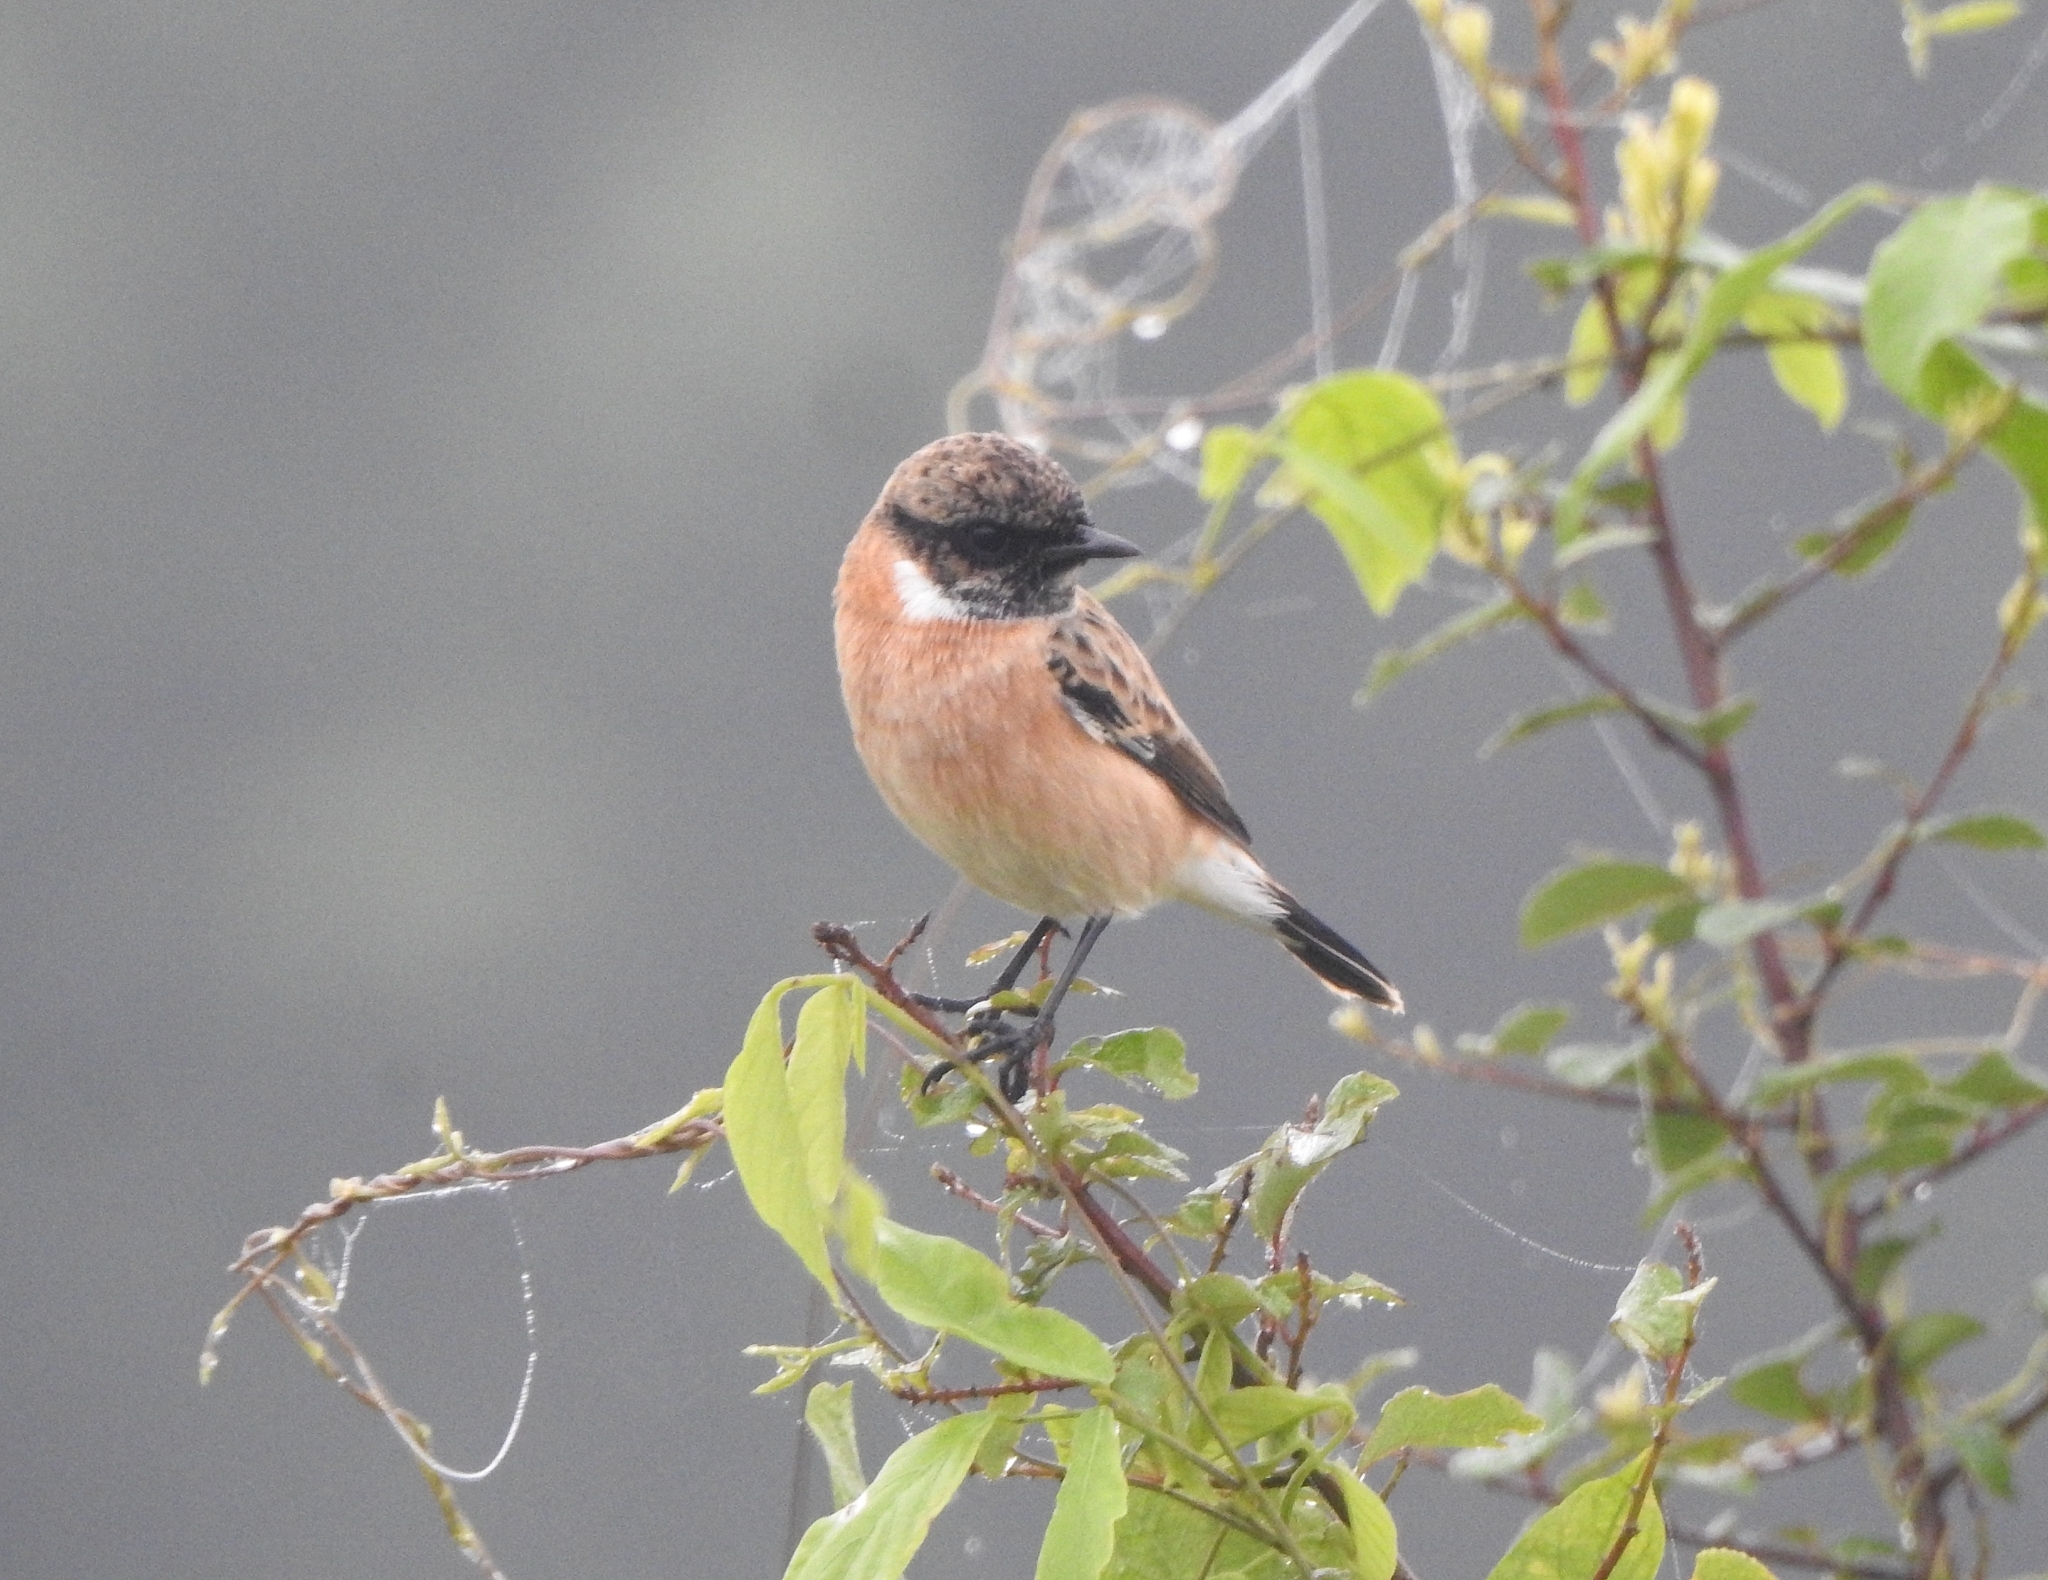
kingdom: Animalia
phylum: Chordata
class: Aves
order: Passeriformes
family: Muscicapidae
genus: Saxicola
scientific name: Saxicola maurus
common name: Siberian stonechat
